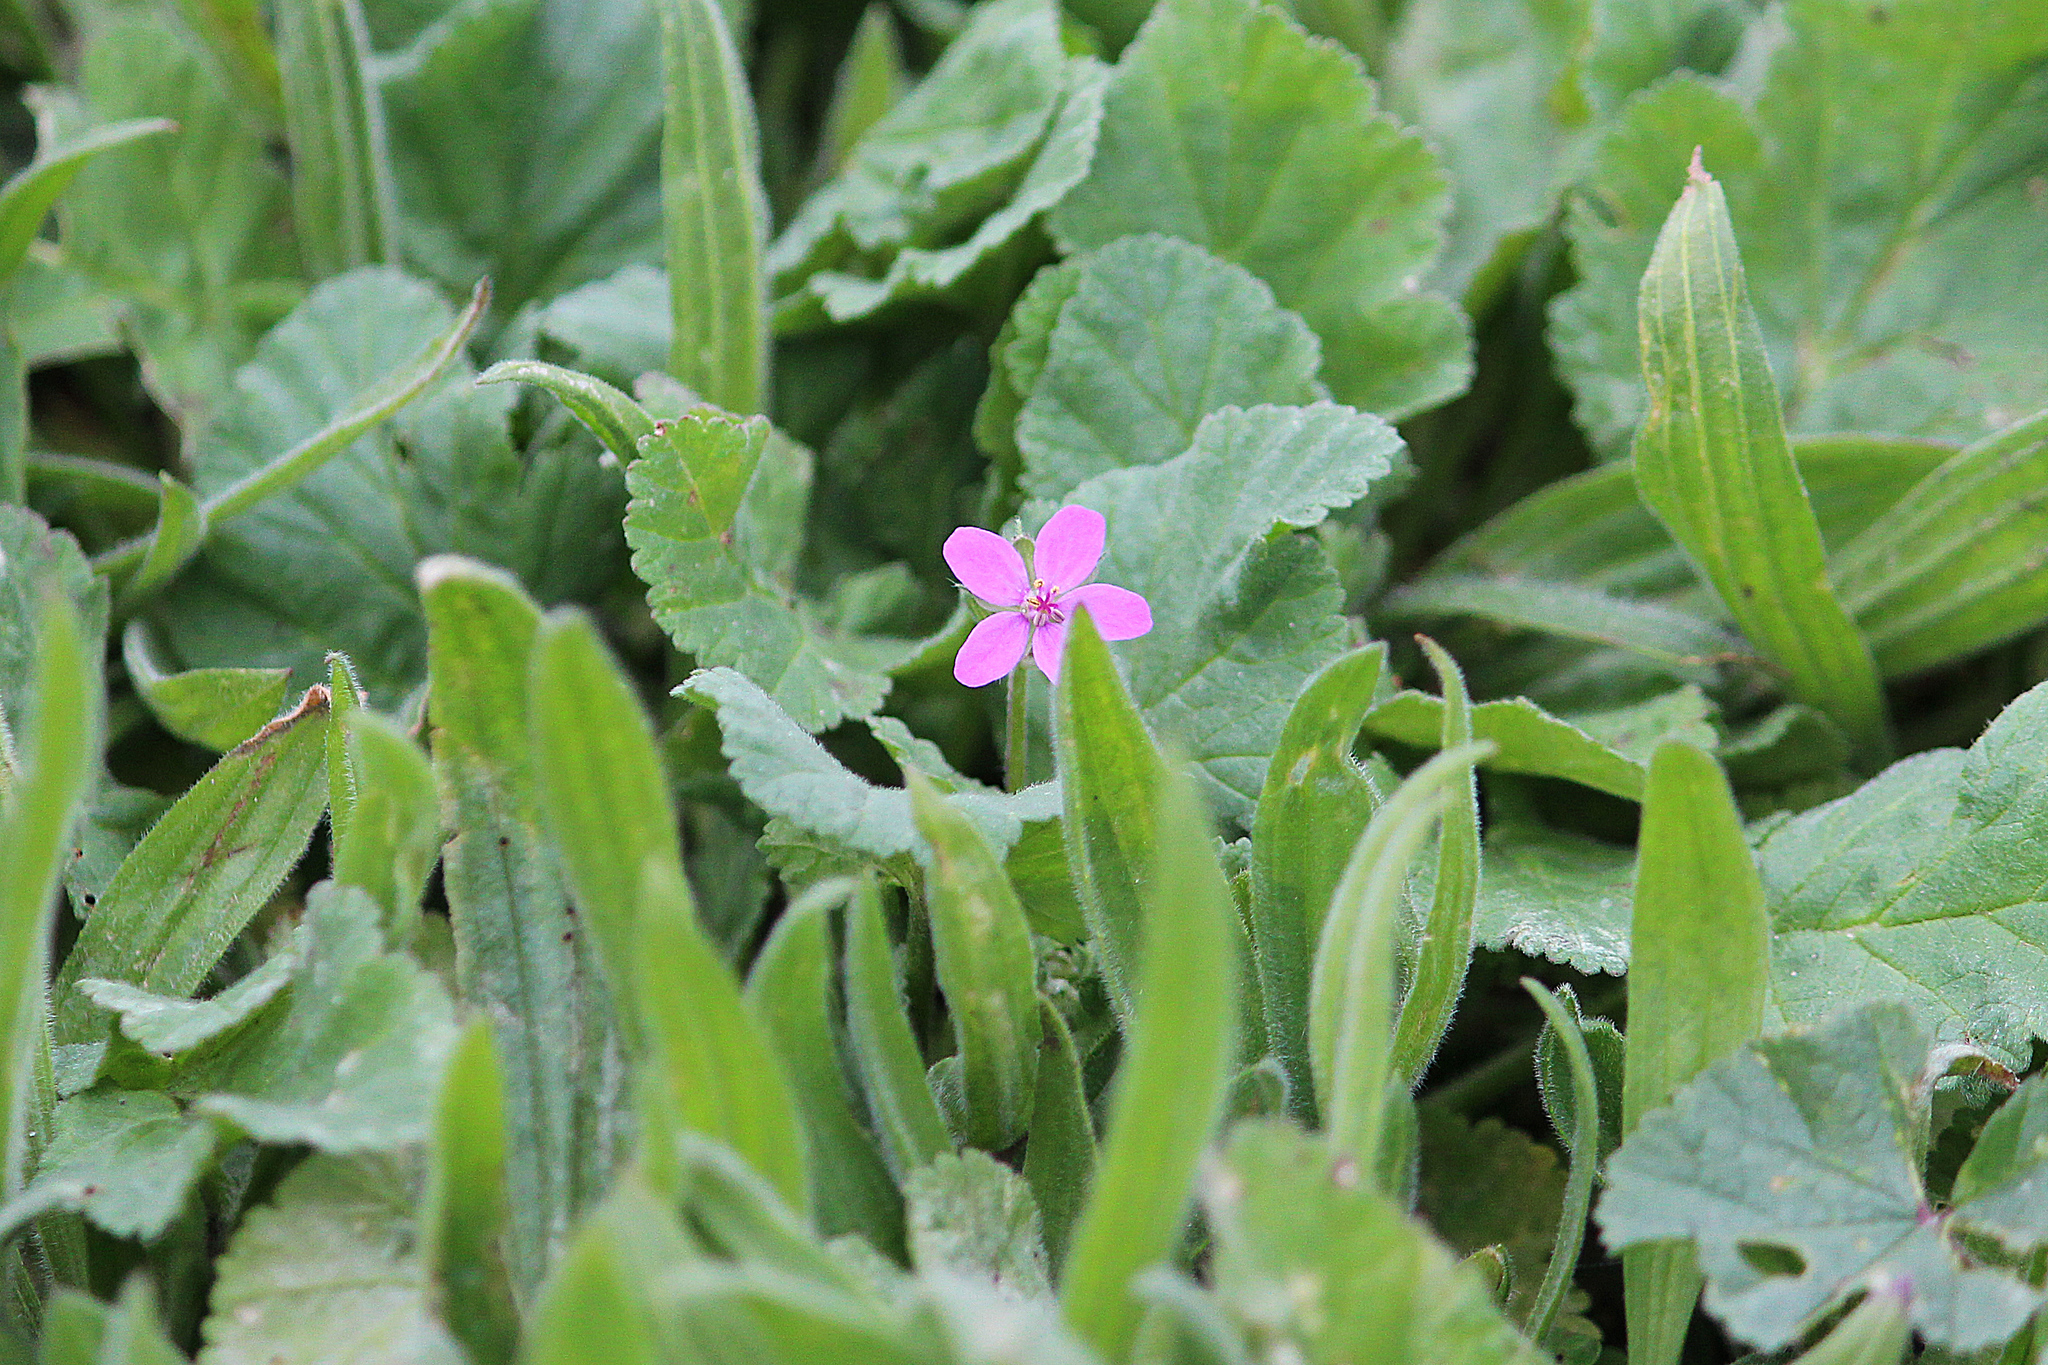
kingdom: Plantae
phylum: Tracheophyta
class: Magnoliopsida
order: Geraniales
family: Geraniaceae
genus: Erodium
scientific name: Erodium malacoides
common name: Soft stork's-bill
